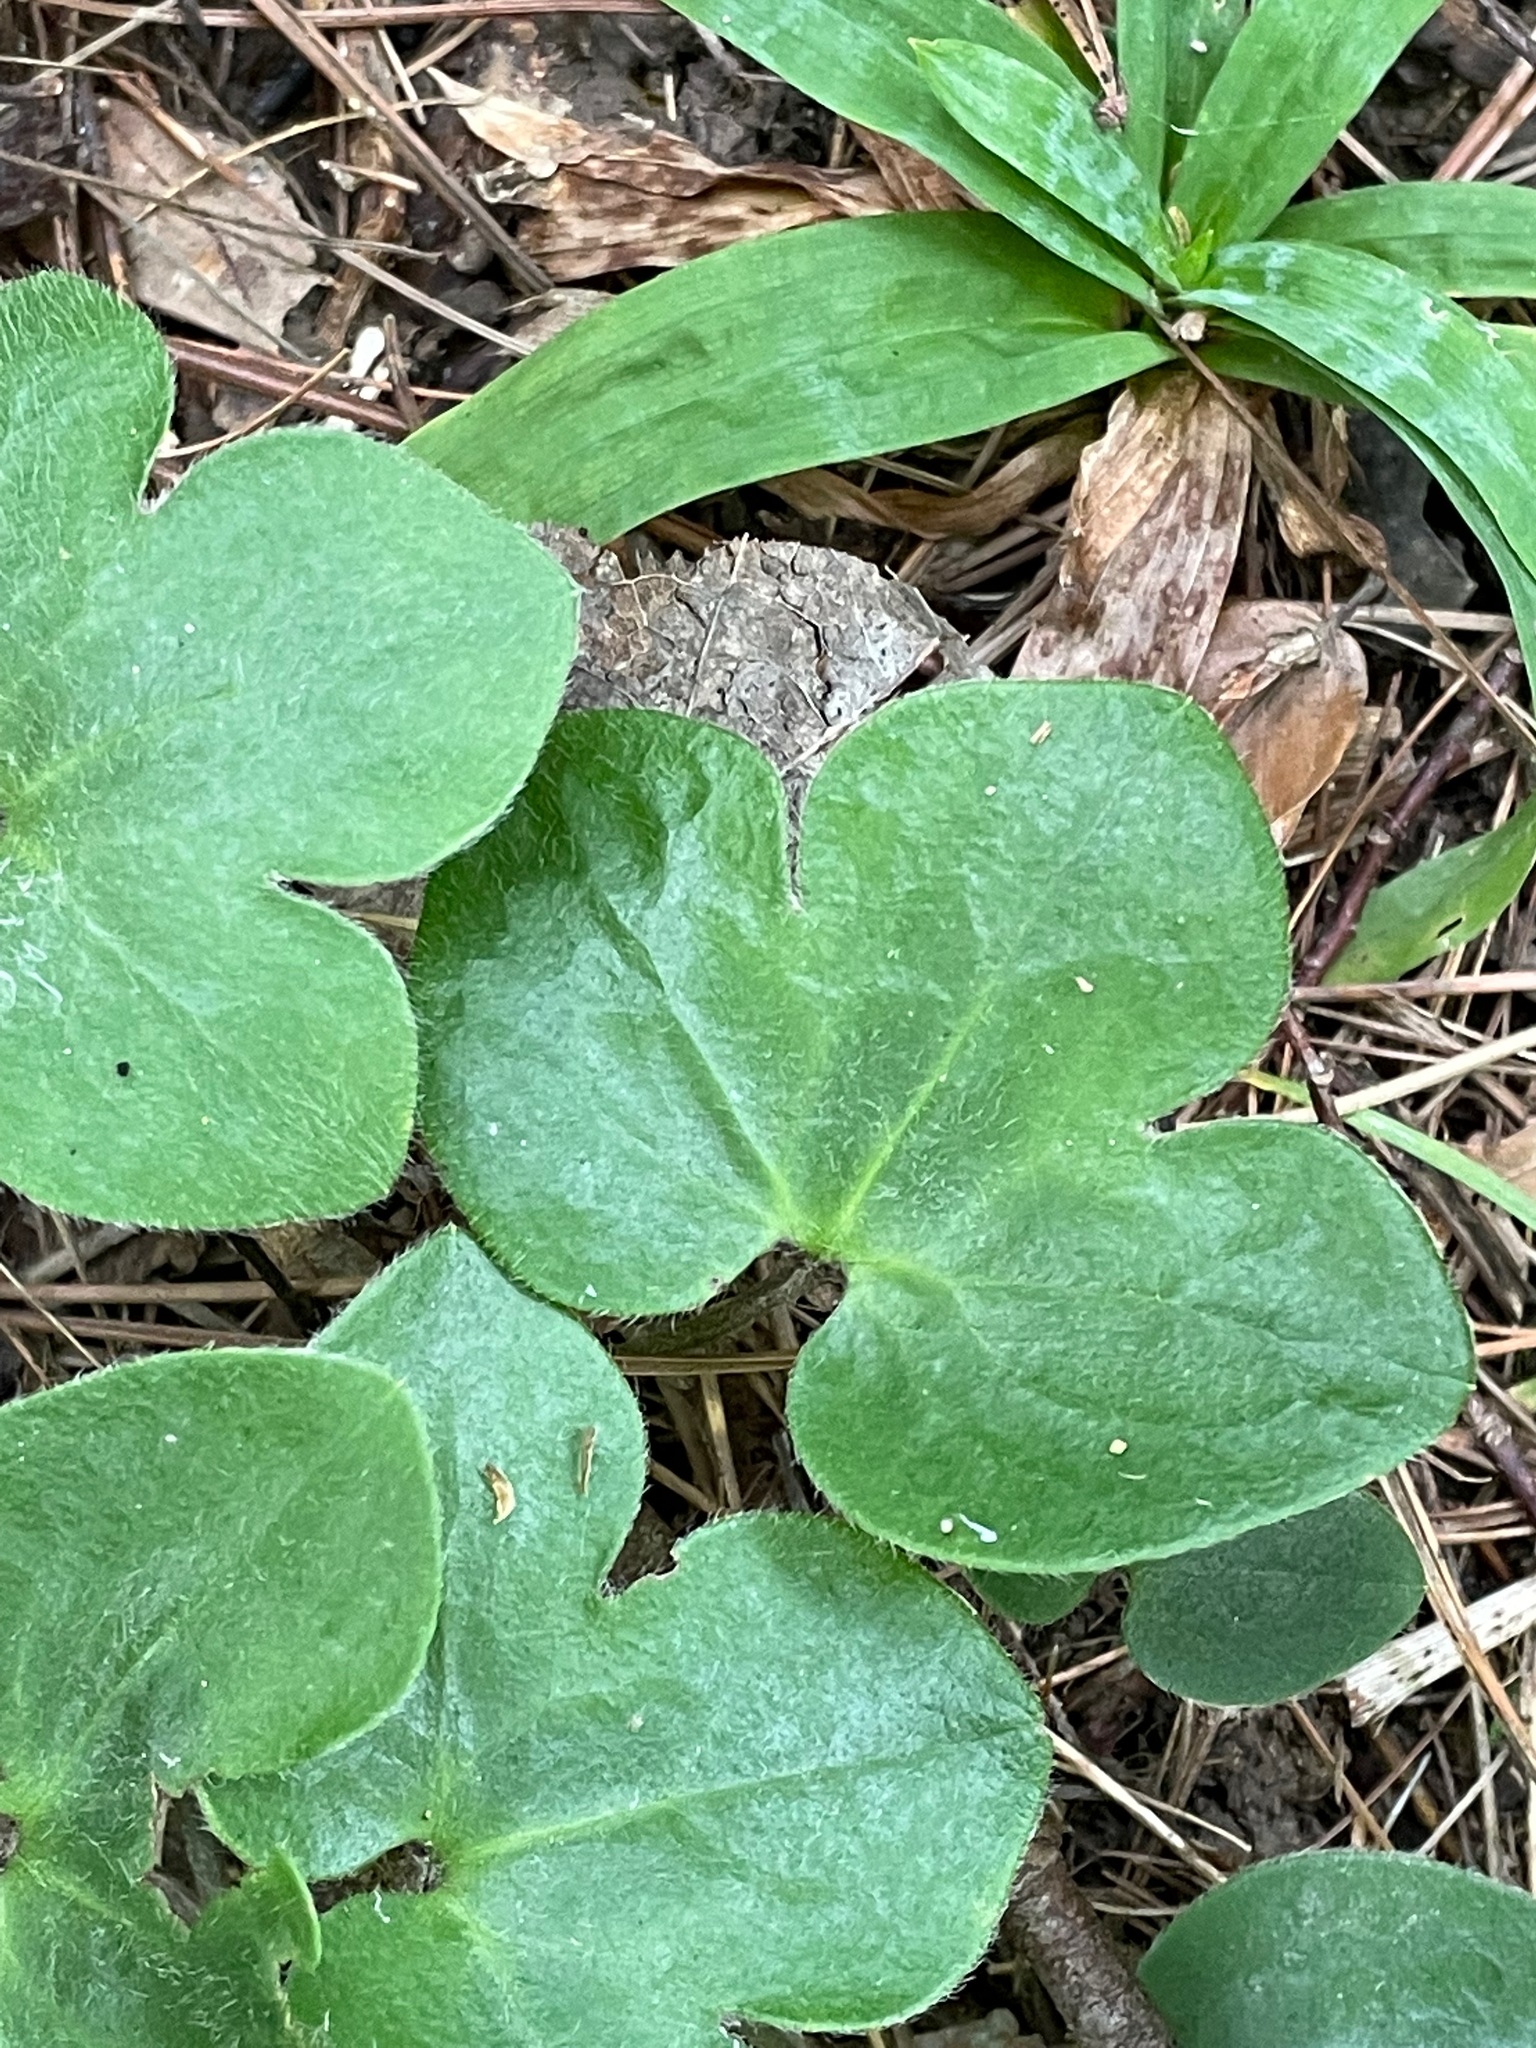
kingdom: Plantae
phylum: Tracheophyta
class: Magnoliopsida
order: Ranunculales
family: Ranunculaceae
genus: Hepatica
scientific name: Hepatica americana
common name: American hepatica
